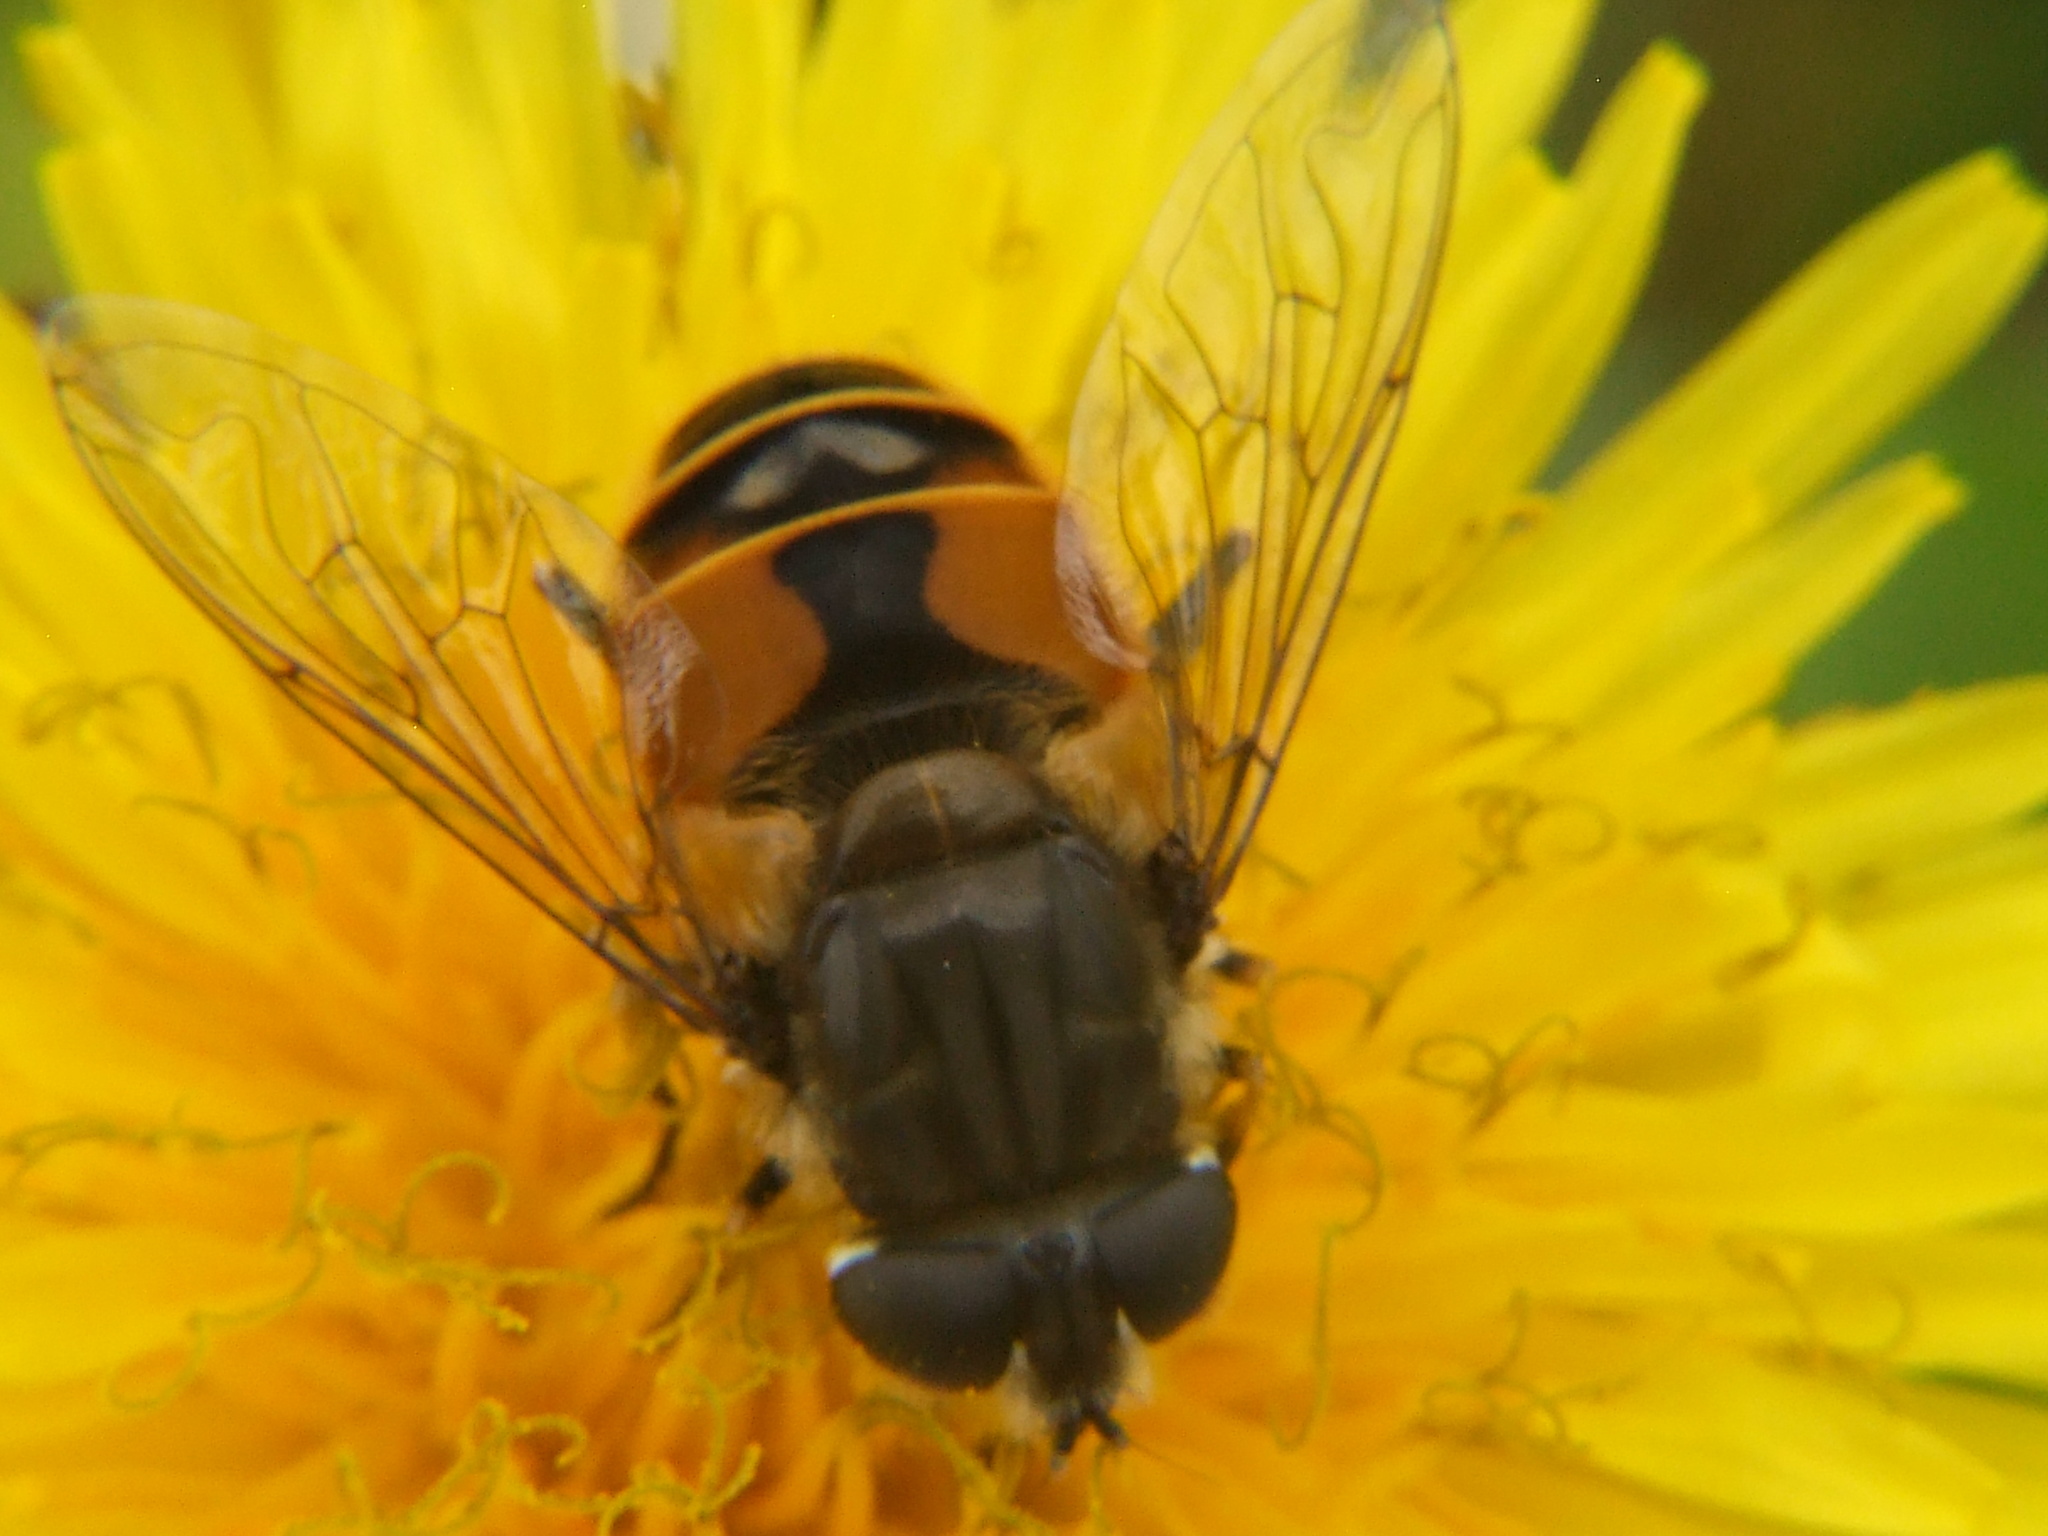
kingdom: Animalia
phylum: Arthropoda
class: Insecta
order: Diptera
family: Syrphidae
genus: Eristalis
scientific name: Eristalis bogotensis
